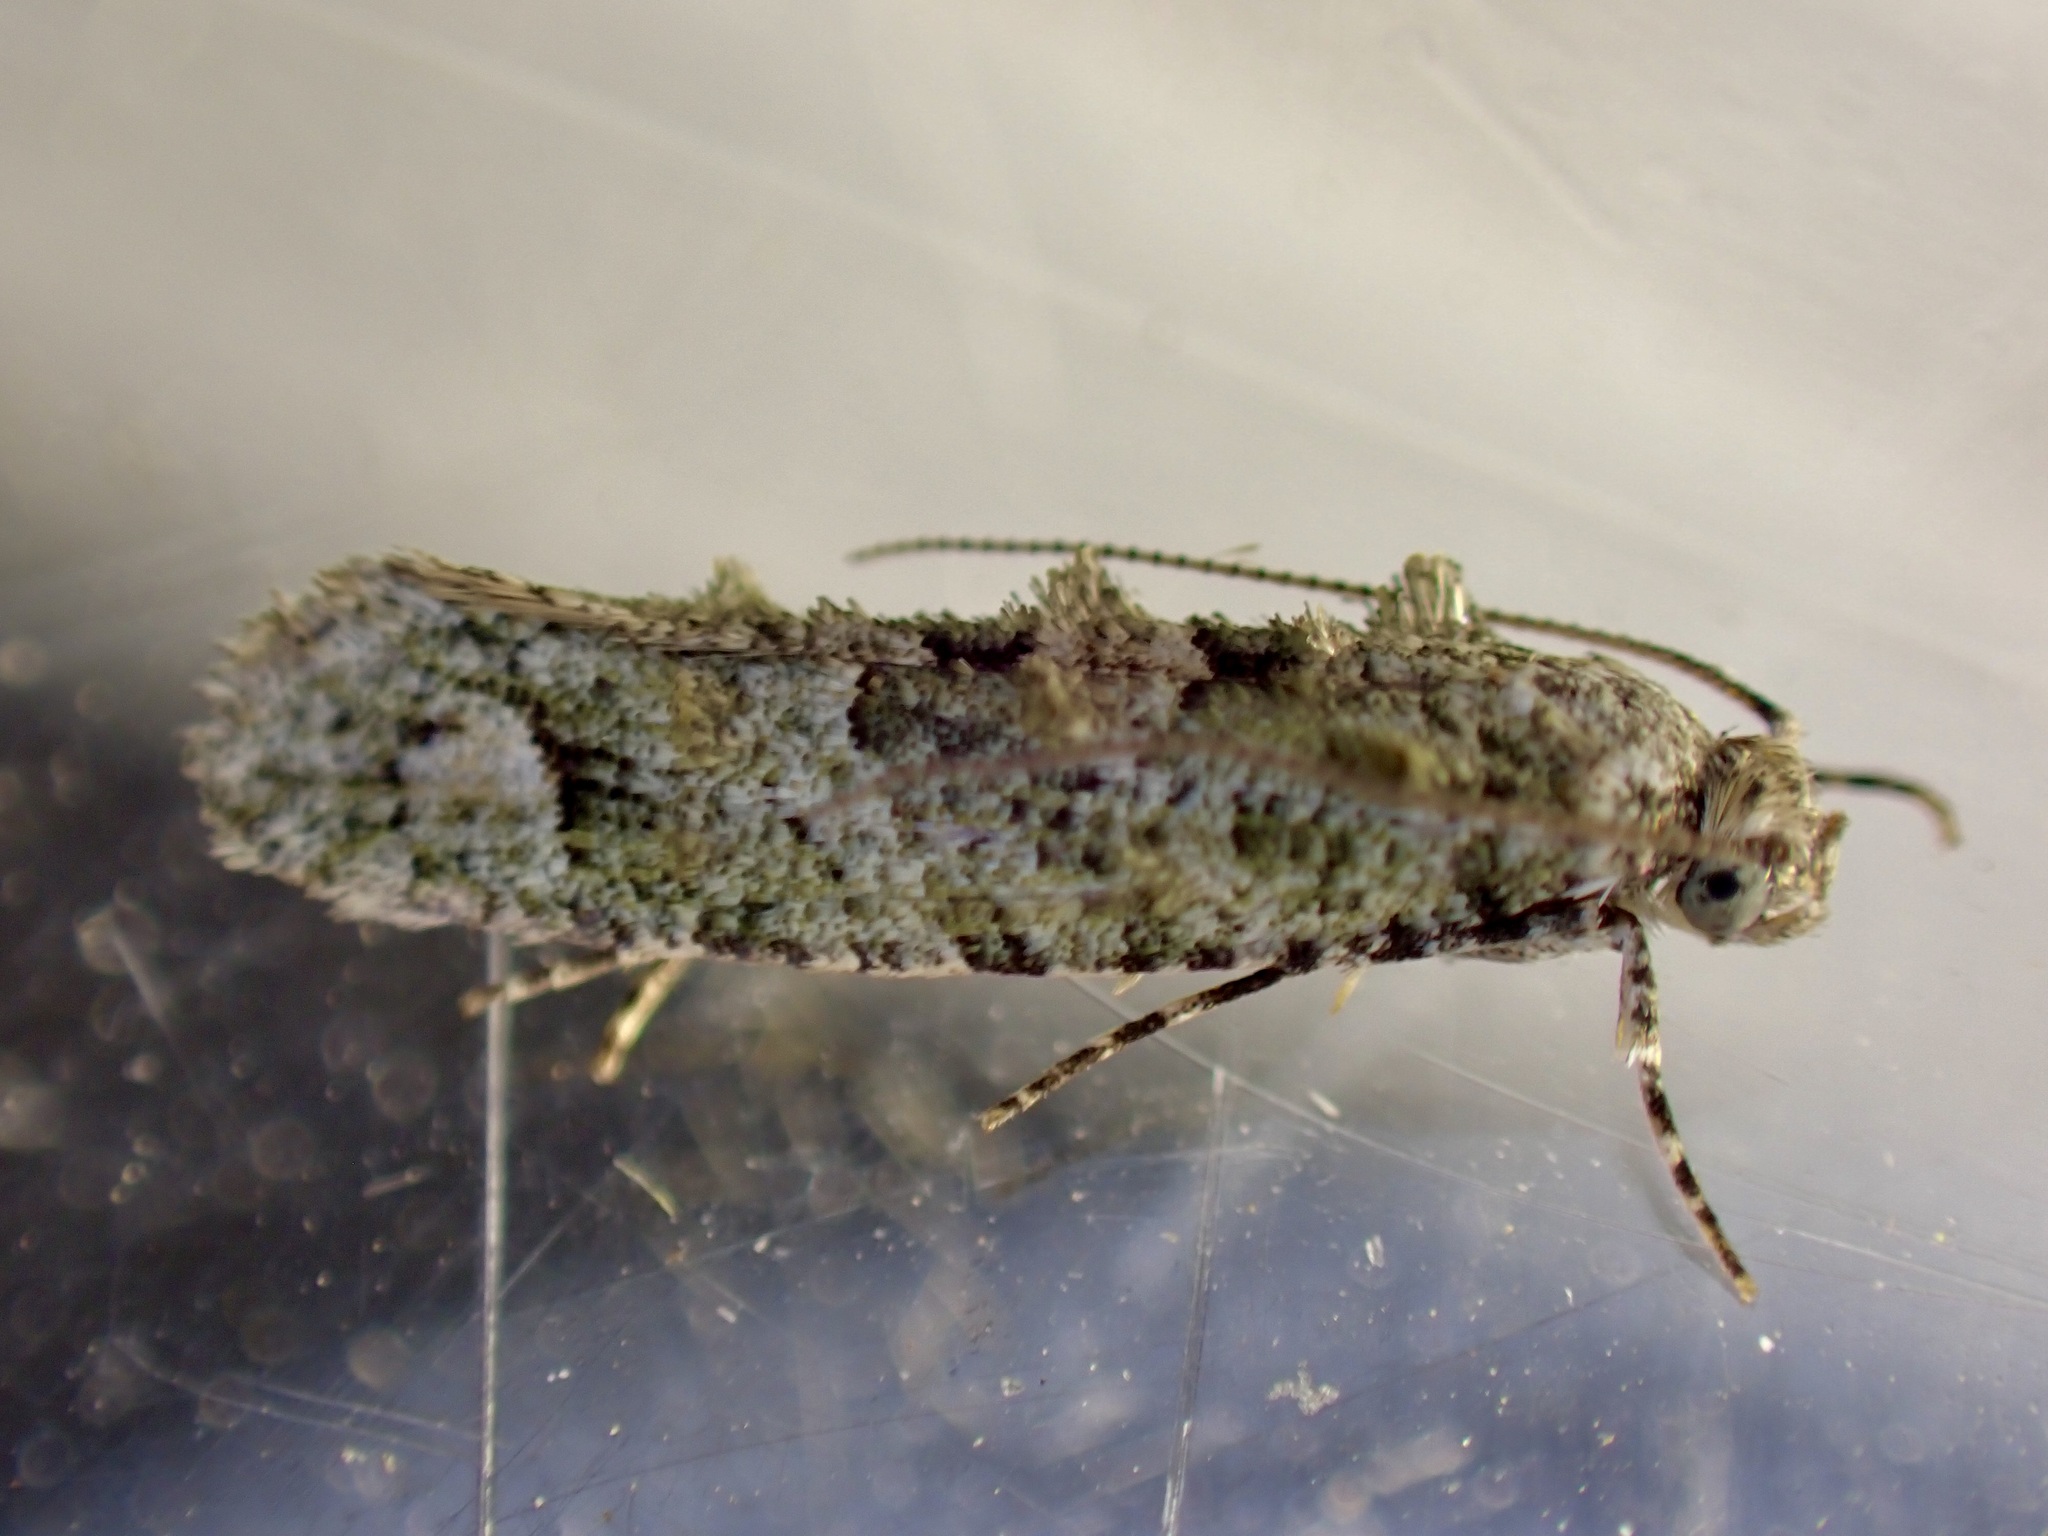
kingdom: Animalia
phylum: Arthropoda
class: Insecta
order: Lepidoptera
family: Tineidae
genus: Lysiphragma
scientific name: Lysiphragma howesii
